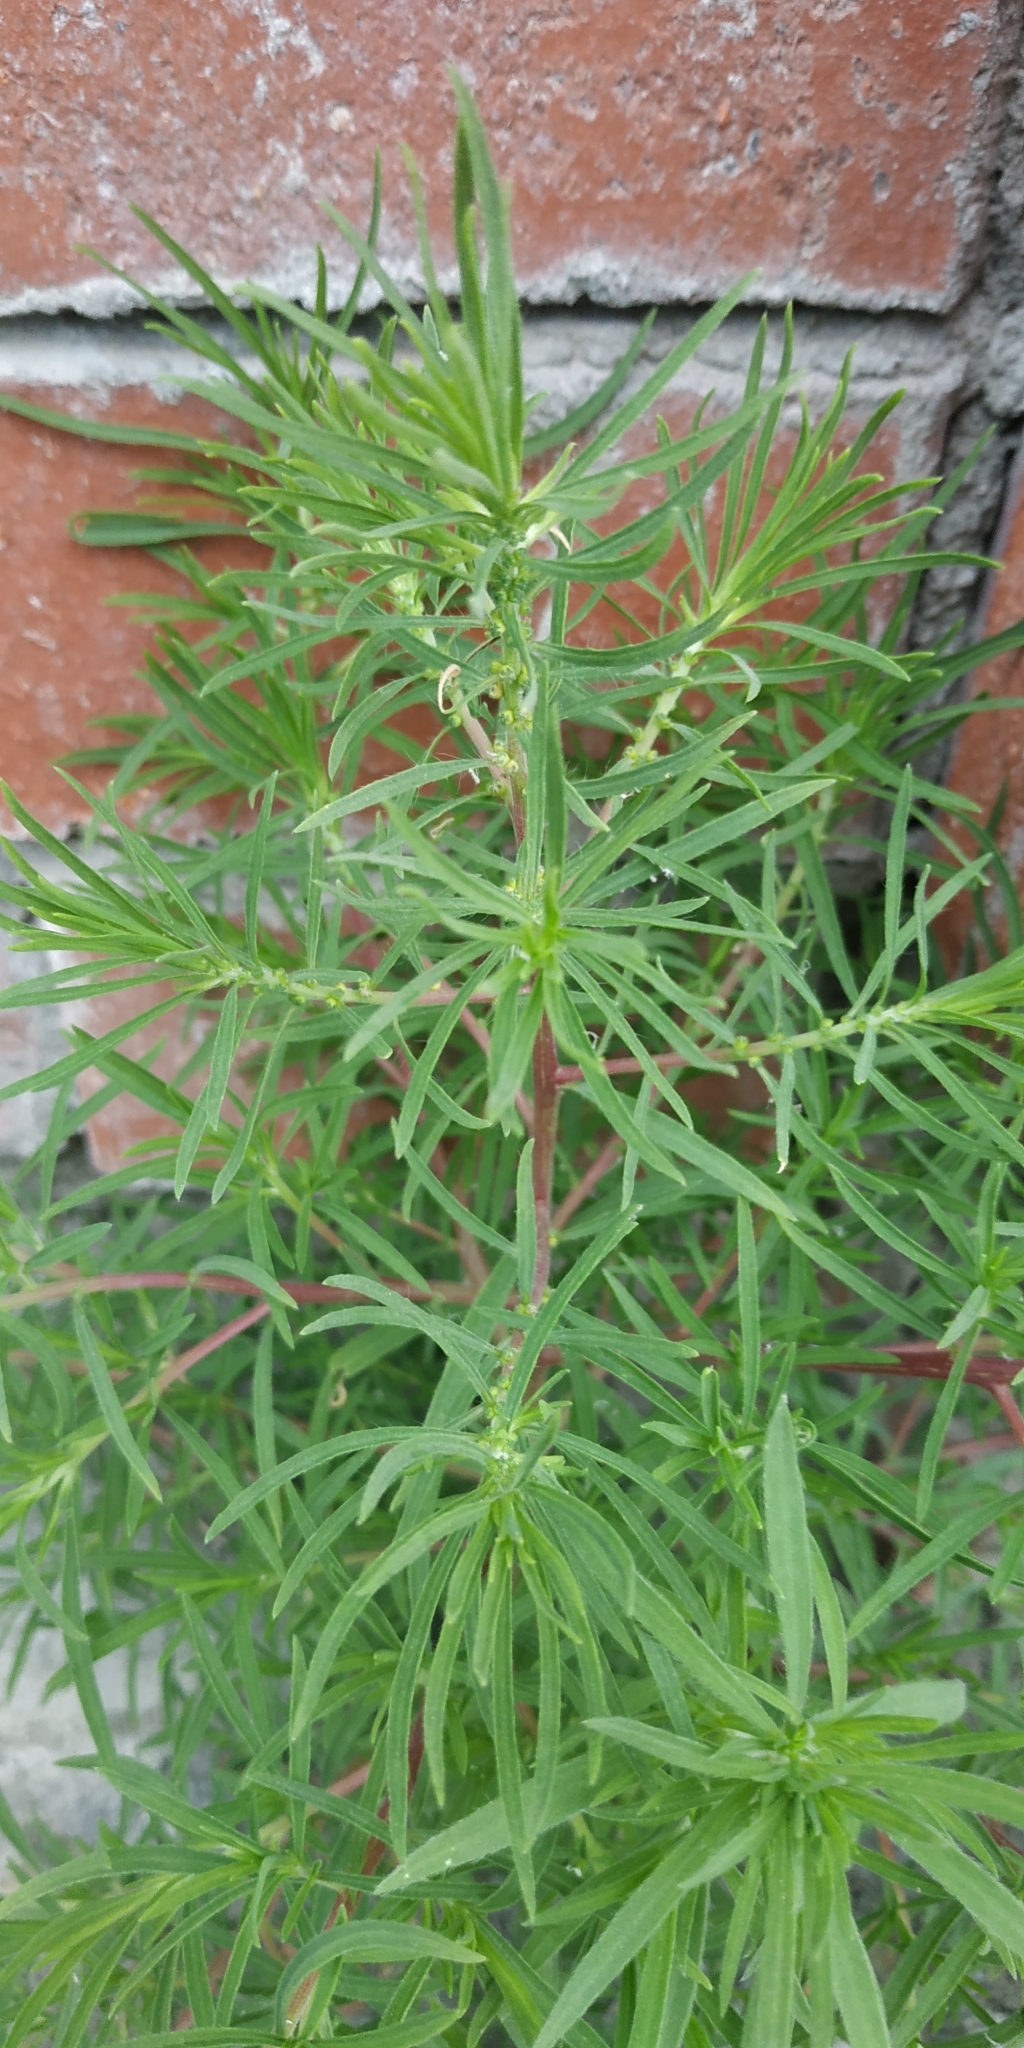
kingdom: Plantae
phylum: Tracheophyta
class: Magnoliopsida
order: Caryophyllales
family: Amaranthaceae
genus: Bassia
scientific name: Bassia scoparia
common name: Belvedere
